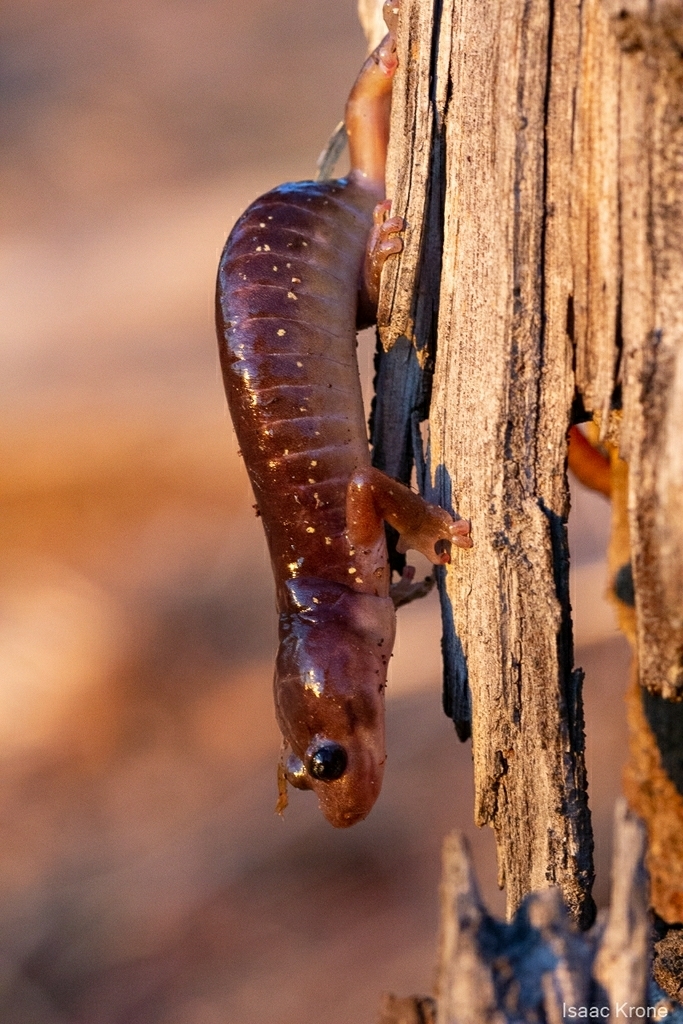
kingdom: Animalia
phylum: Chordata
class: Amphibia
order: Caudata
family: Plethodontidae
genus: Aneides
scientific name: Aneides lugubris
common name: Arboreal salamander
